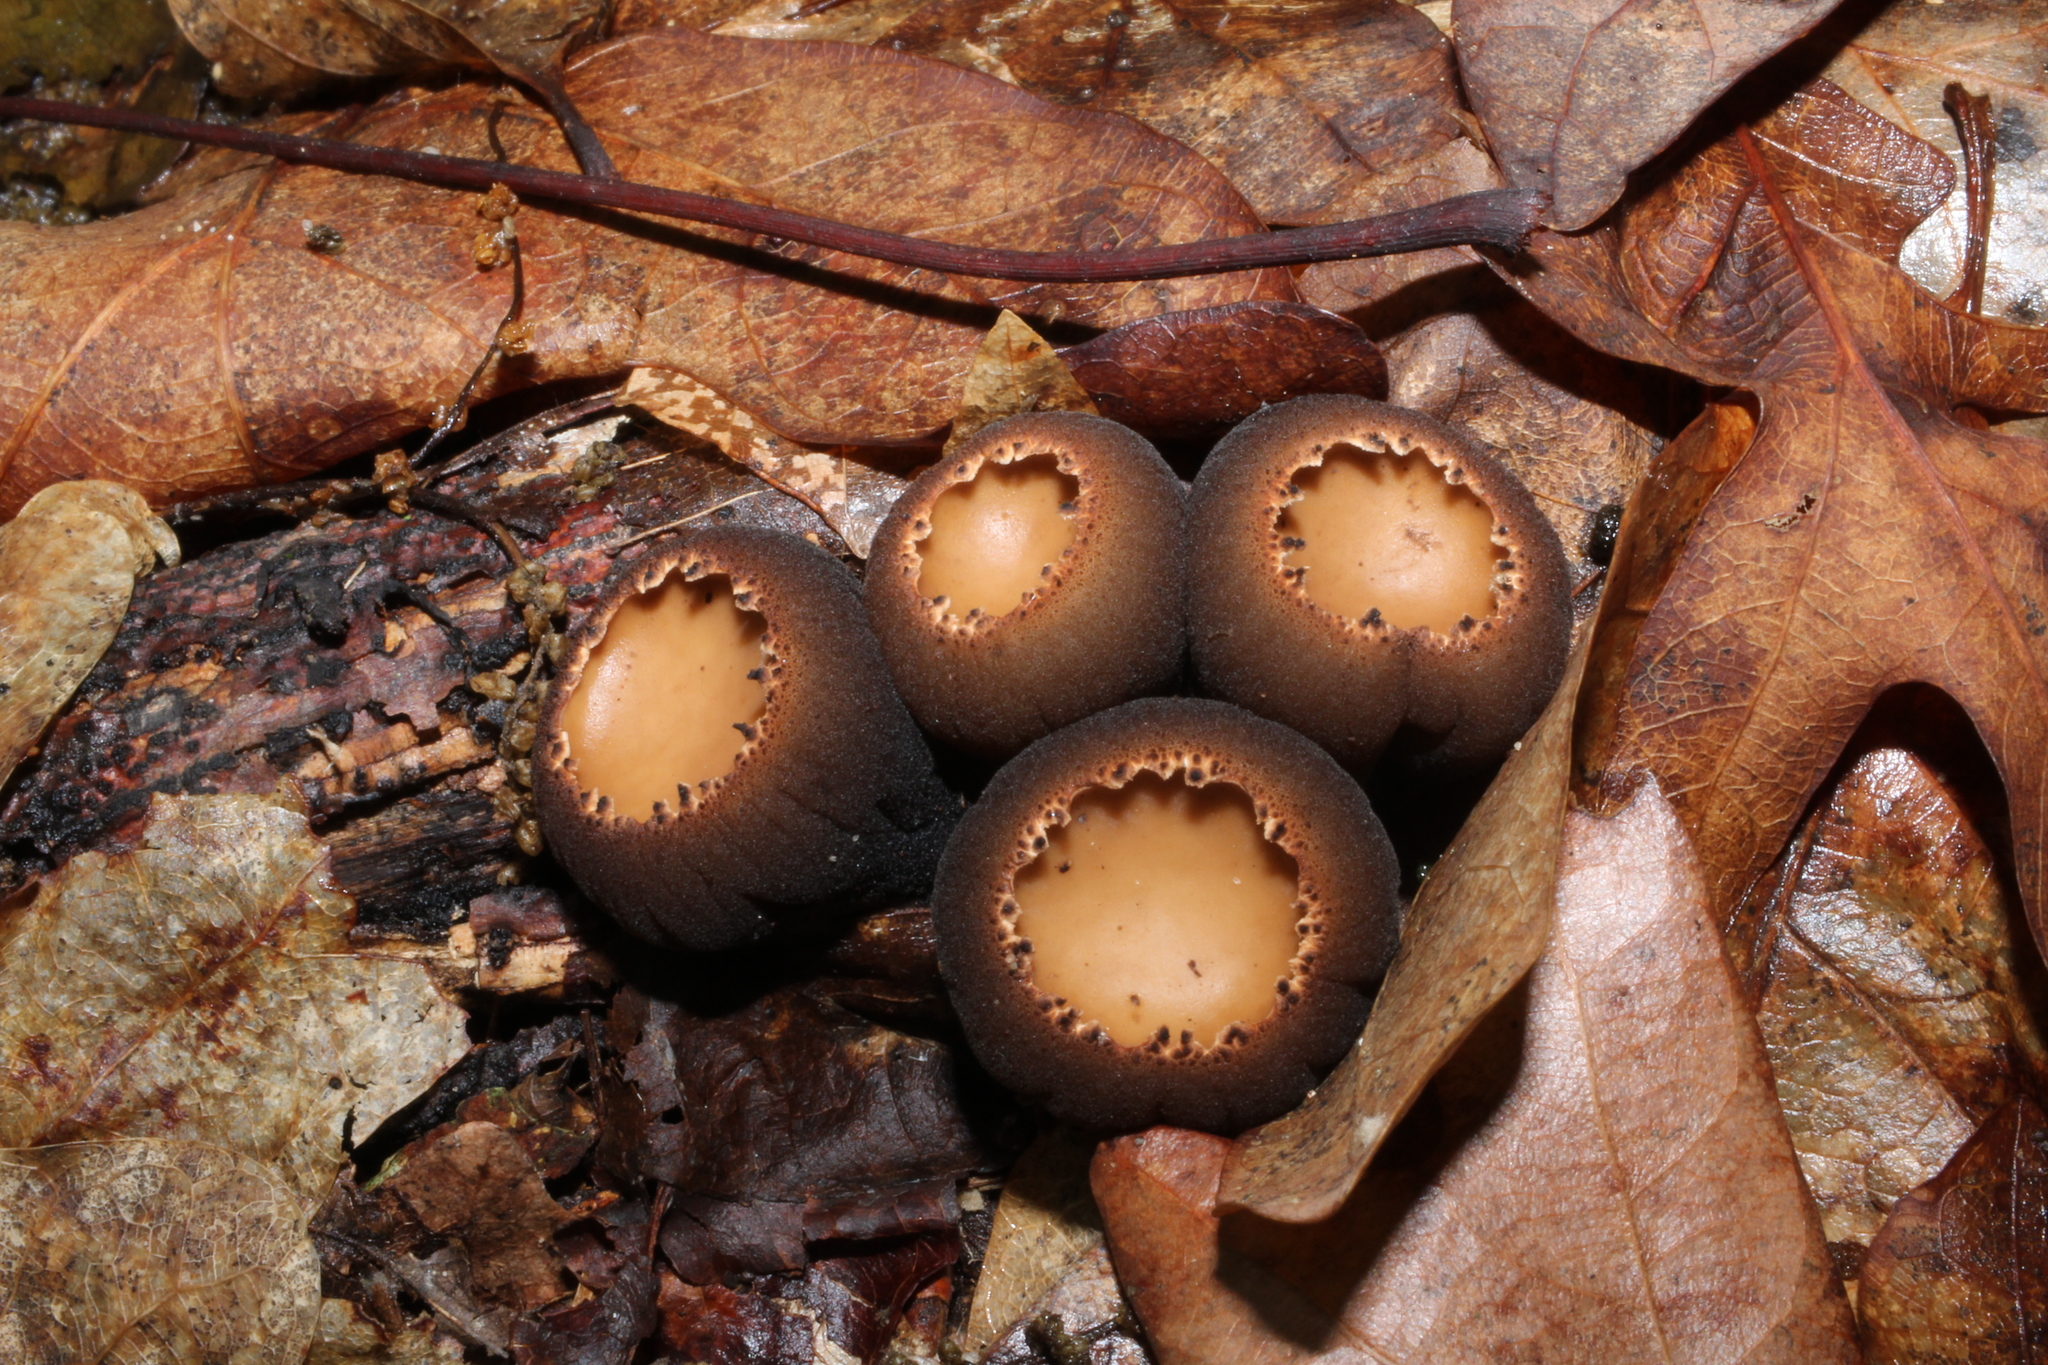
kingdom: Fungi
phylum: Ascomycota
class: Pezizomycetes
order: Pezizales
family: Sarcosomataceae
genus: Galiella
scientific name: Galiella rufa
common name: Hairy rubber cup
